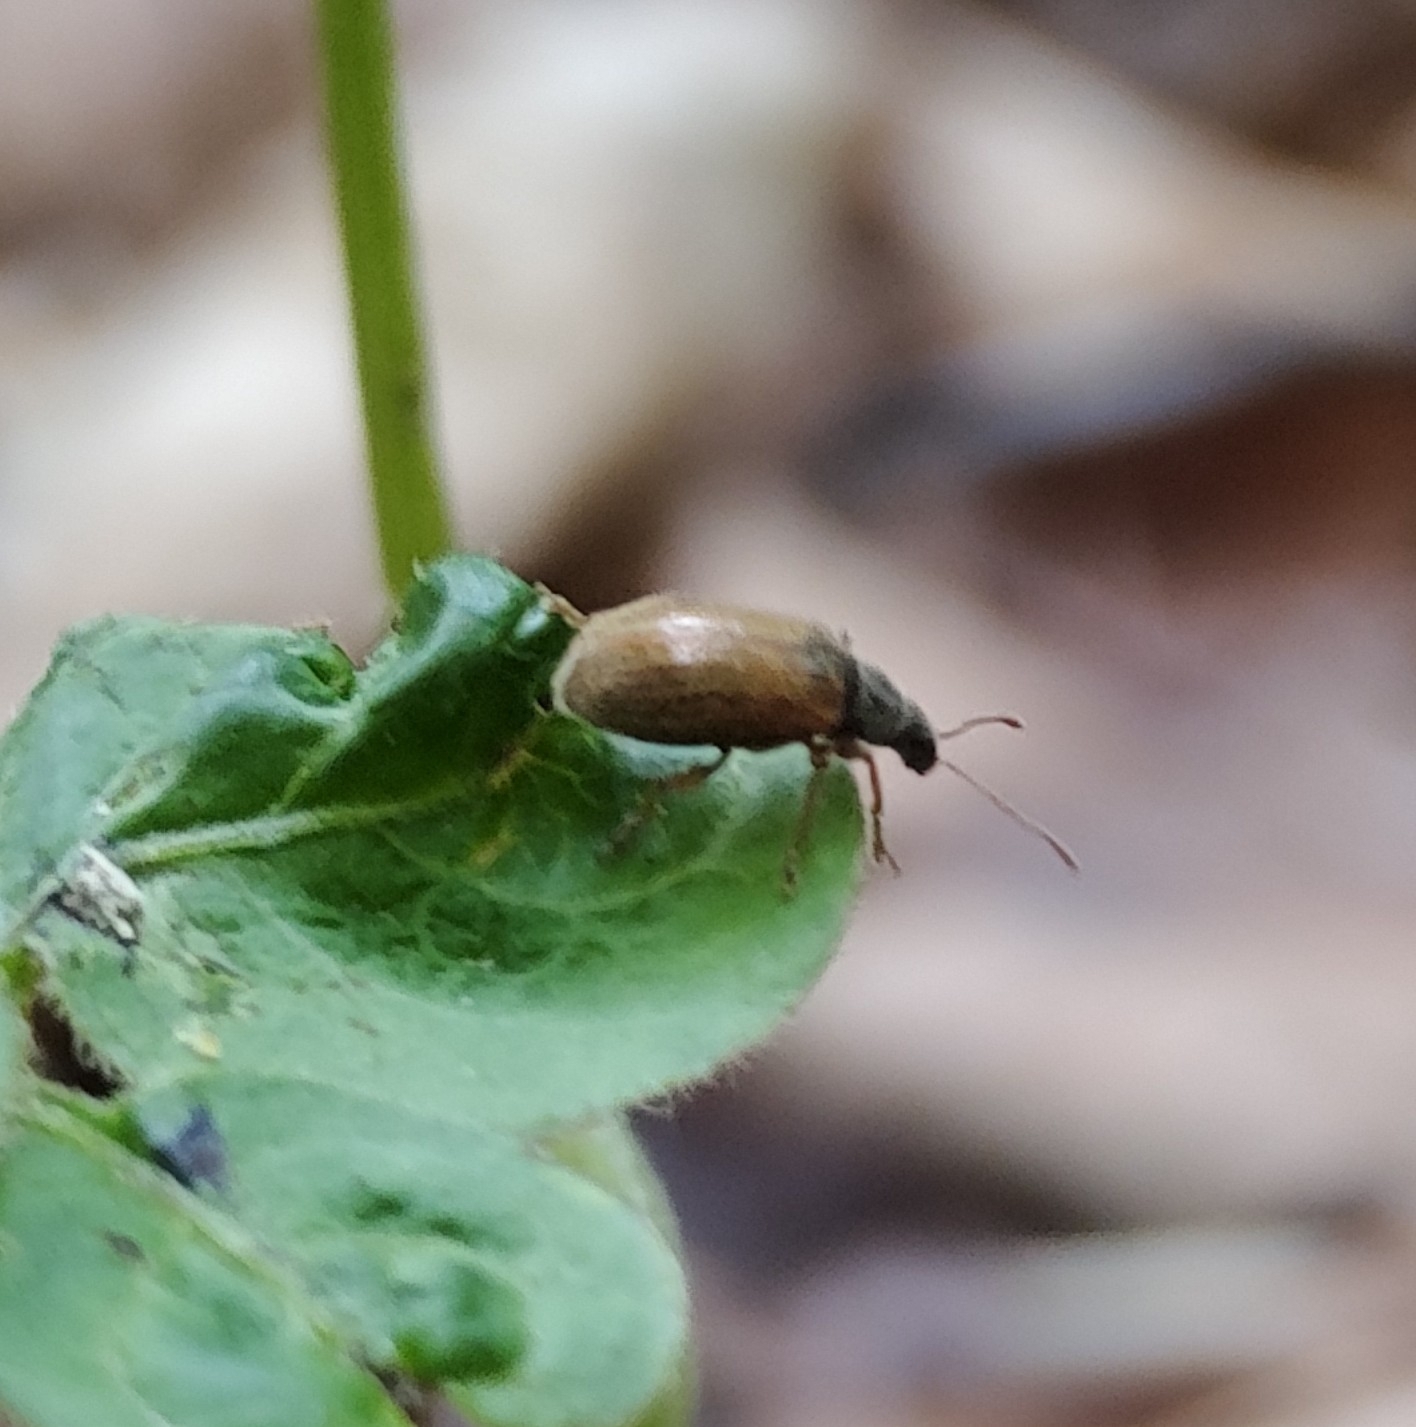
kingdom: Animalia
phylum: Arthropoda
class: Insecta
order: Coleoptera
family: Curculionidae
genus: Phyllobius
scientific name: Phyllobius oblongus
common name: Brown leaf weevil
